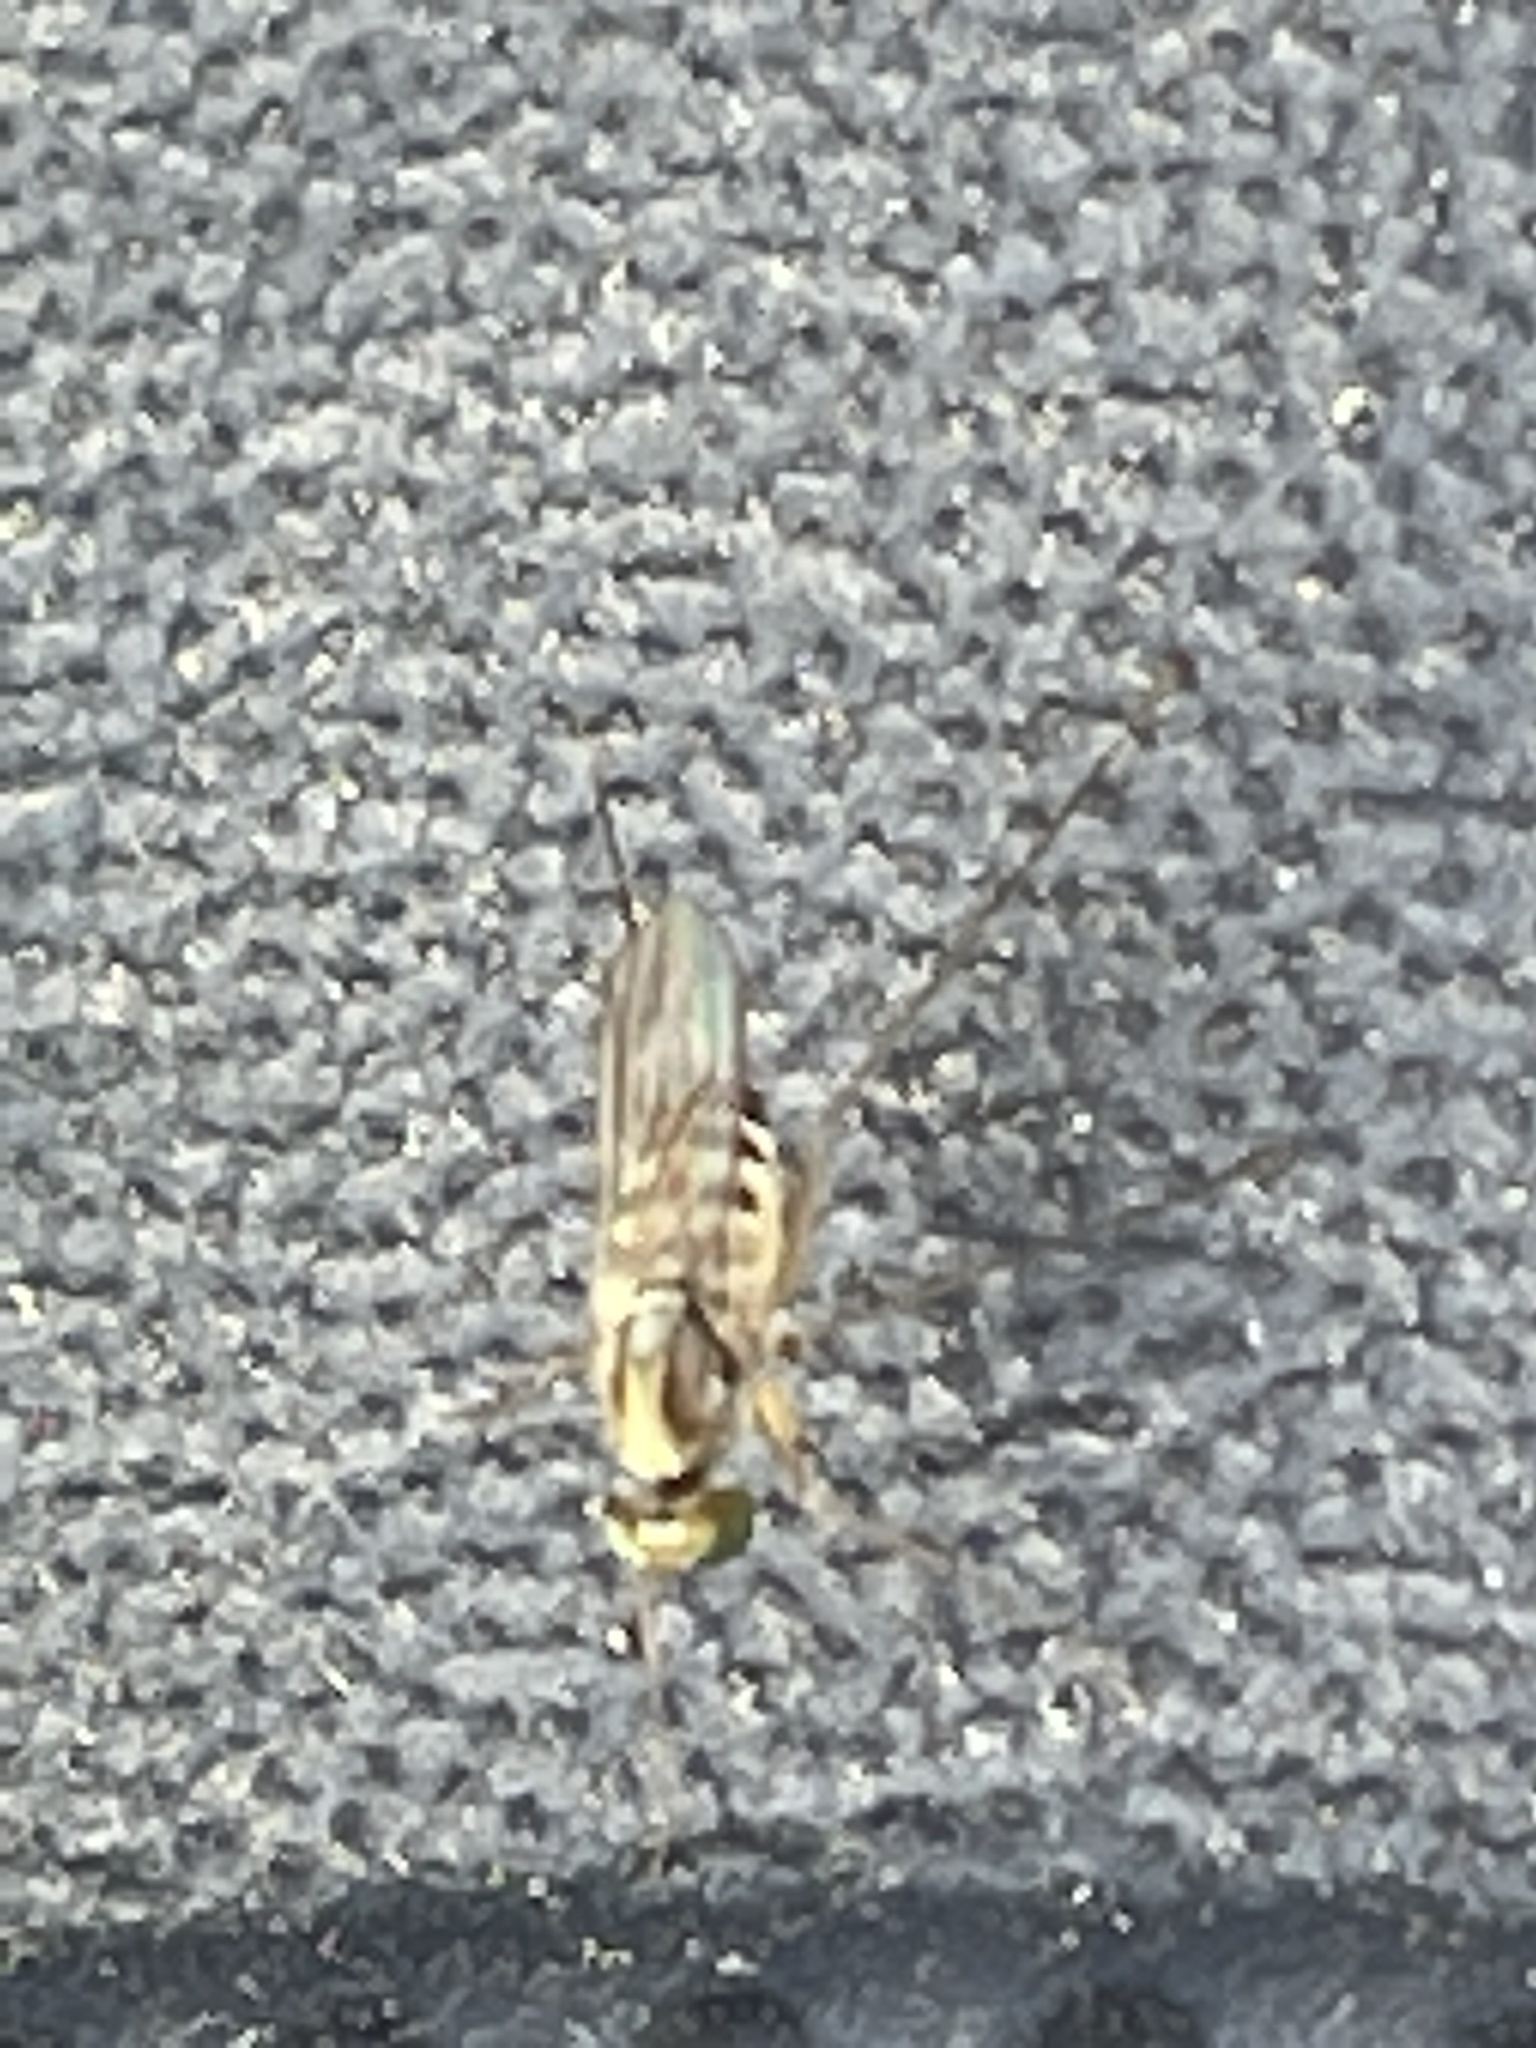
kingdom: Animalia
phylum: Arthropoda
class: Insecta
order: Diptera
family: Dolichopodidae
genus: Dactylomyia
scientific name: Dactylomyia lateralis
